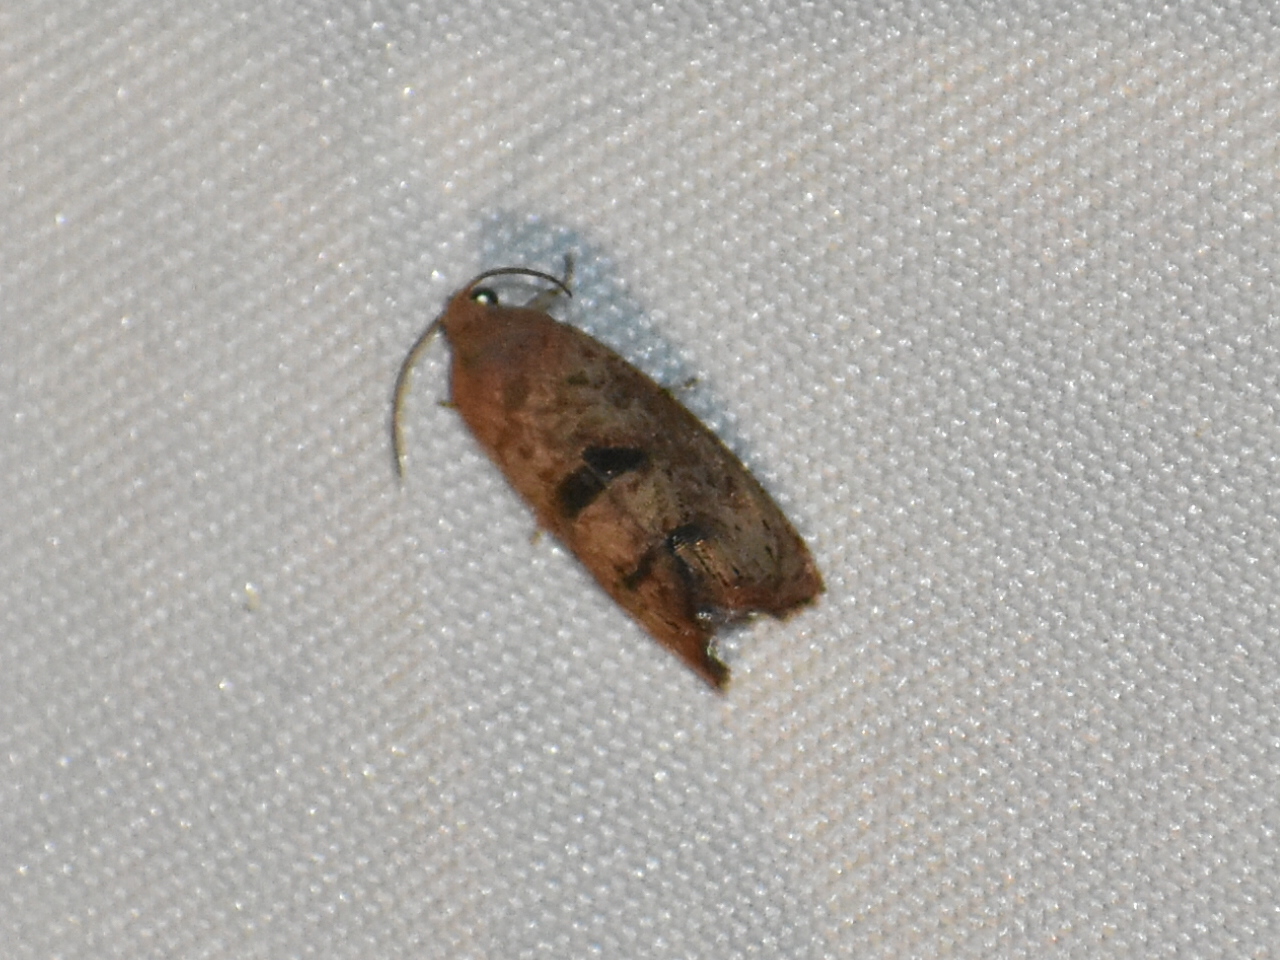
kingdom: Animalia
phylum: Arthropoda
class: Insecta
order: Lepidoptera
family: Tortricidae
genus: Cydia
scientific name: Cydia latiferreana
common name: Filbertworm moth
